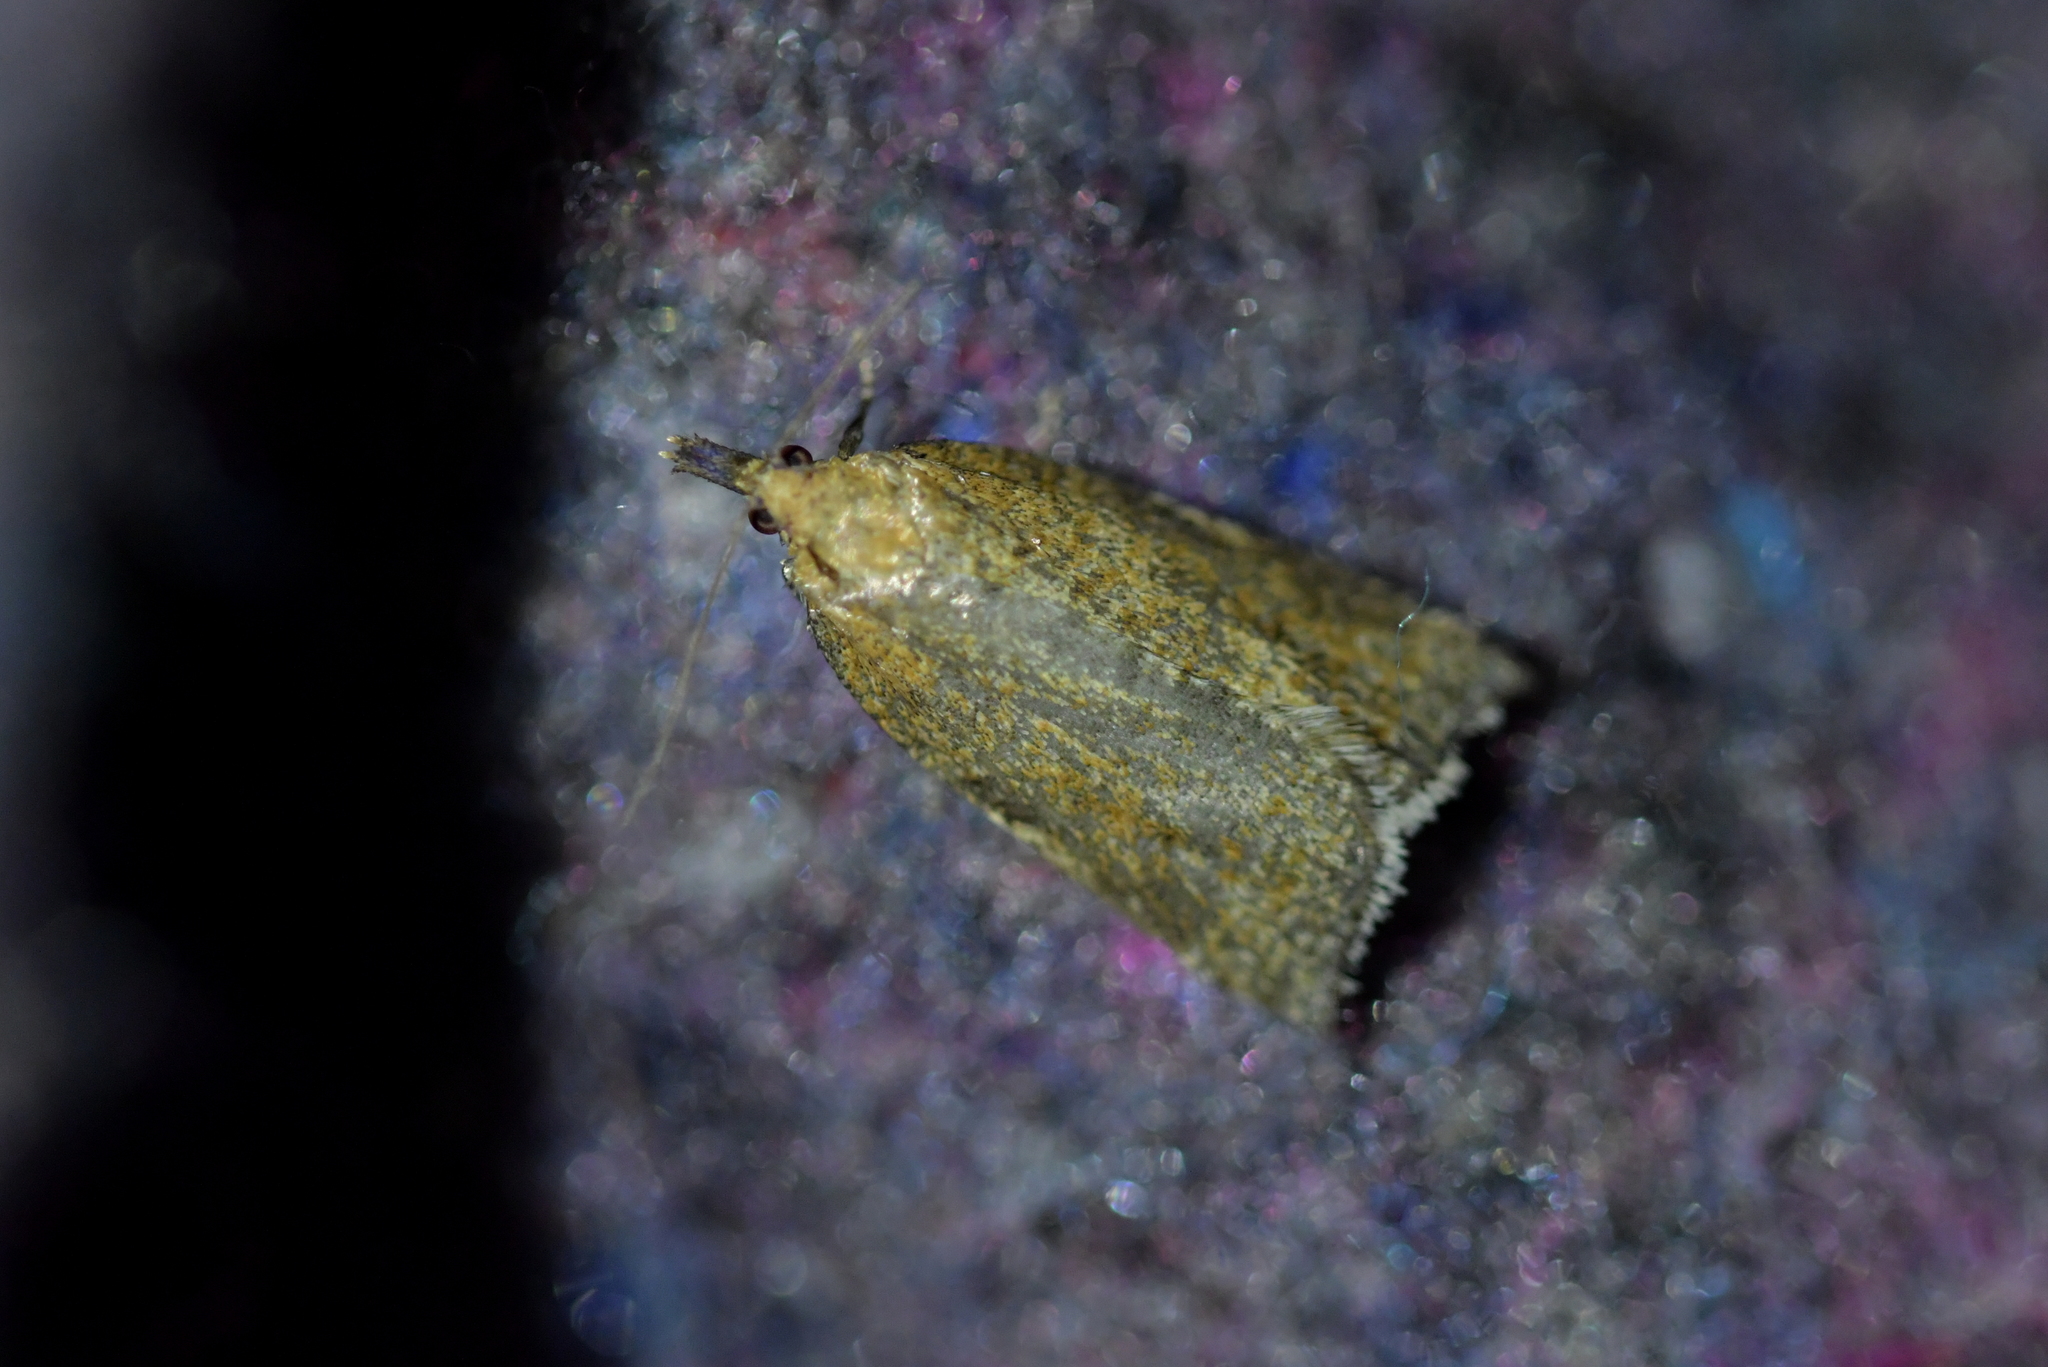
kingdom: Animalia
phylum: Arthropoda
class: Insecta
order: Lepidoptera
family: Tortricidae
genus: Catamacta
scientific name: Catamacta gavisana
